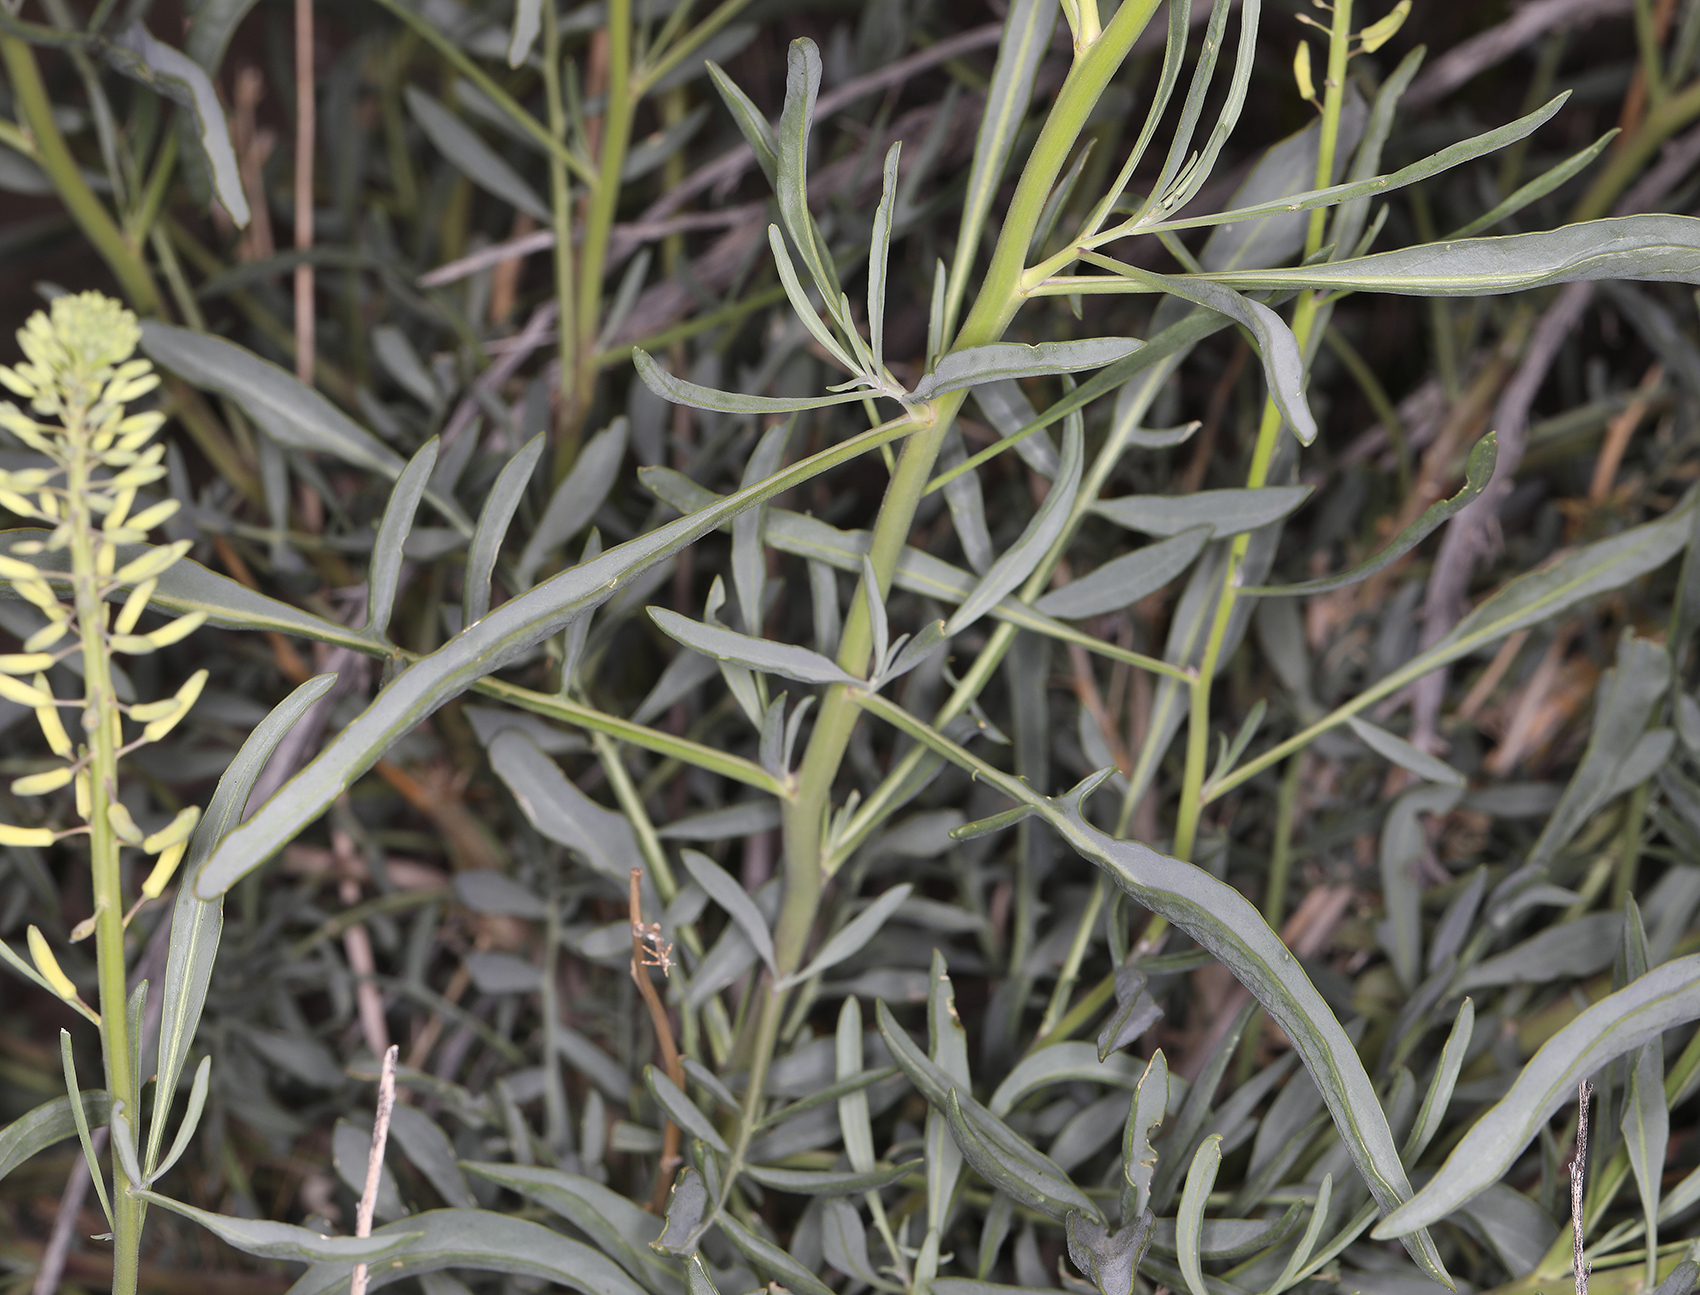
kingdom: Plantae
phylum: Tracheophyta
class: Magnoliopsida
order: Brassicales
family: Brassicaceae
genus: Stanleya
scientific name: Stanleya pinnata
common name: Prince's-plume
